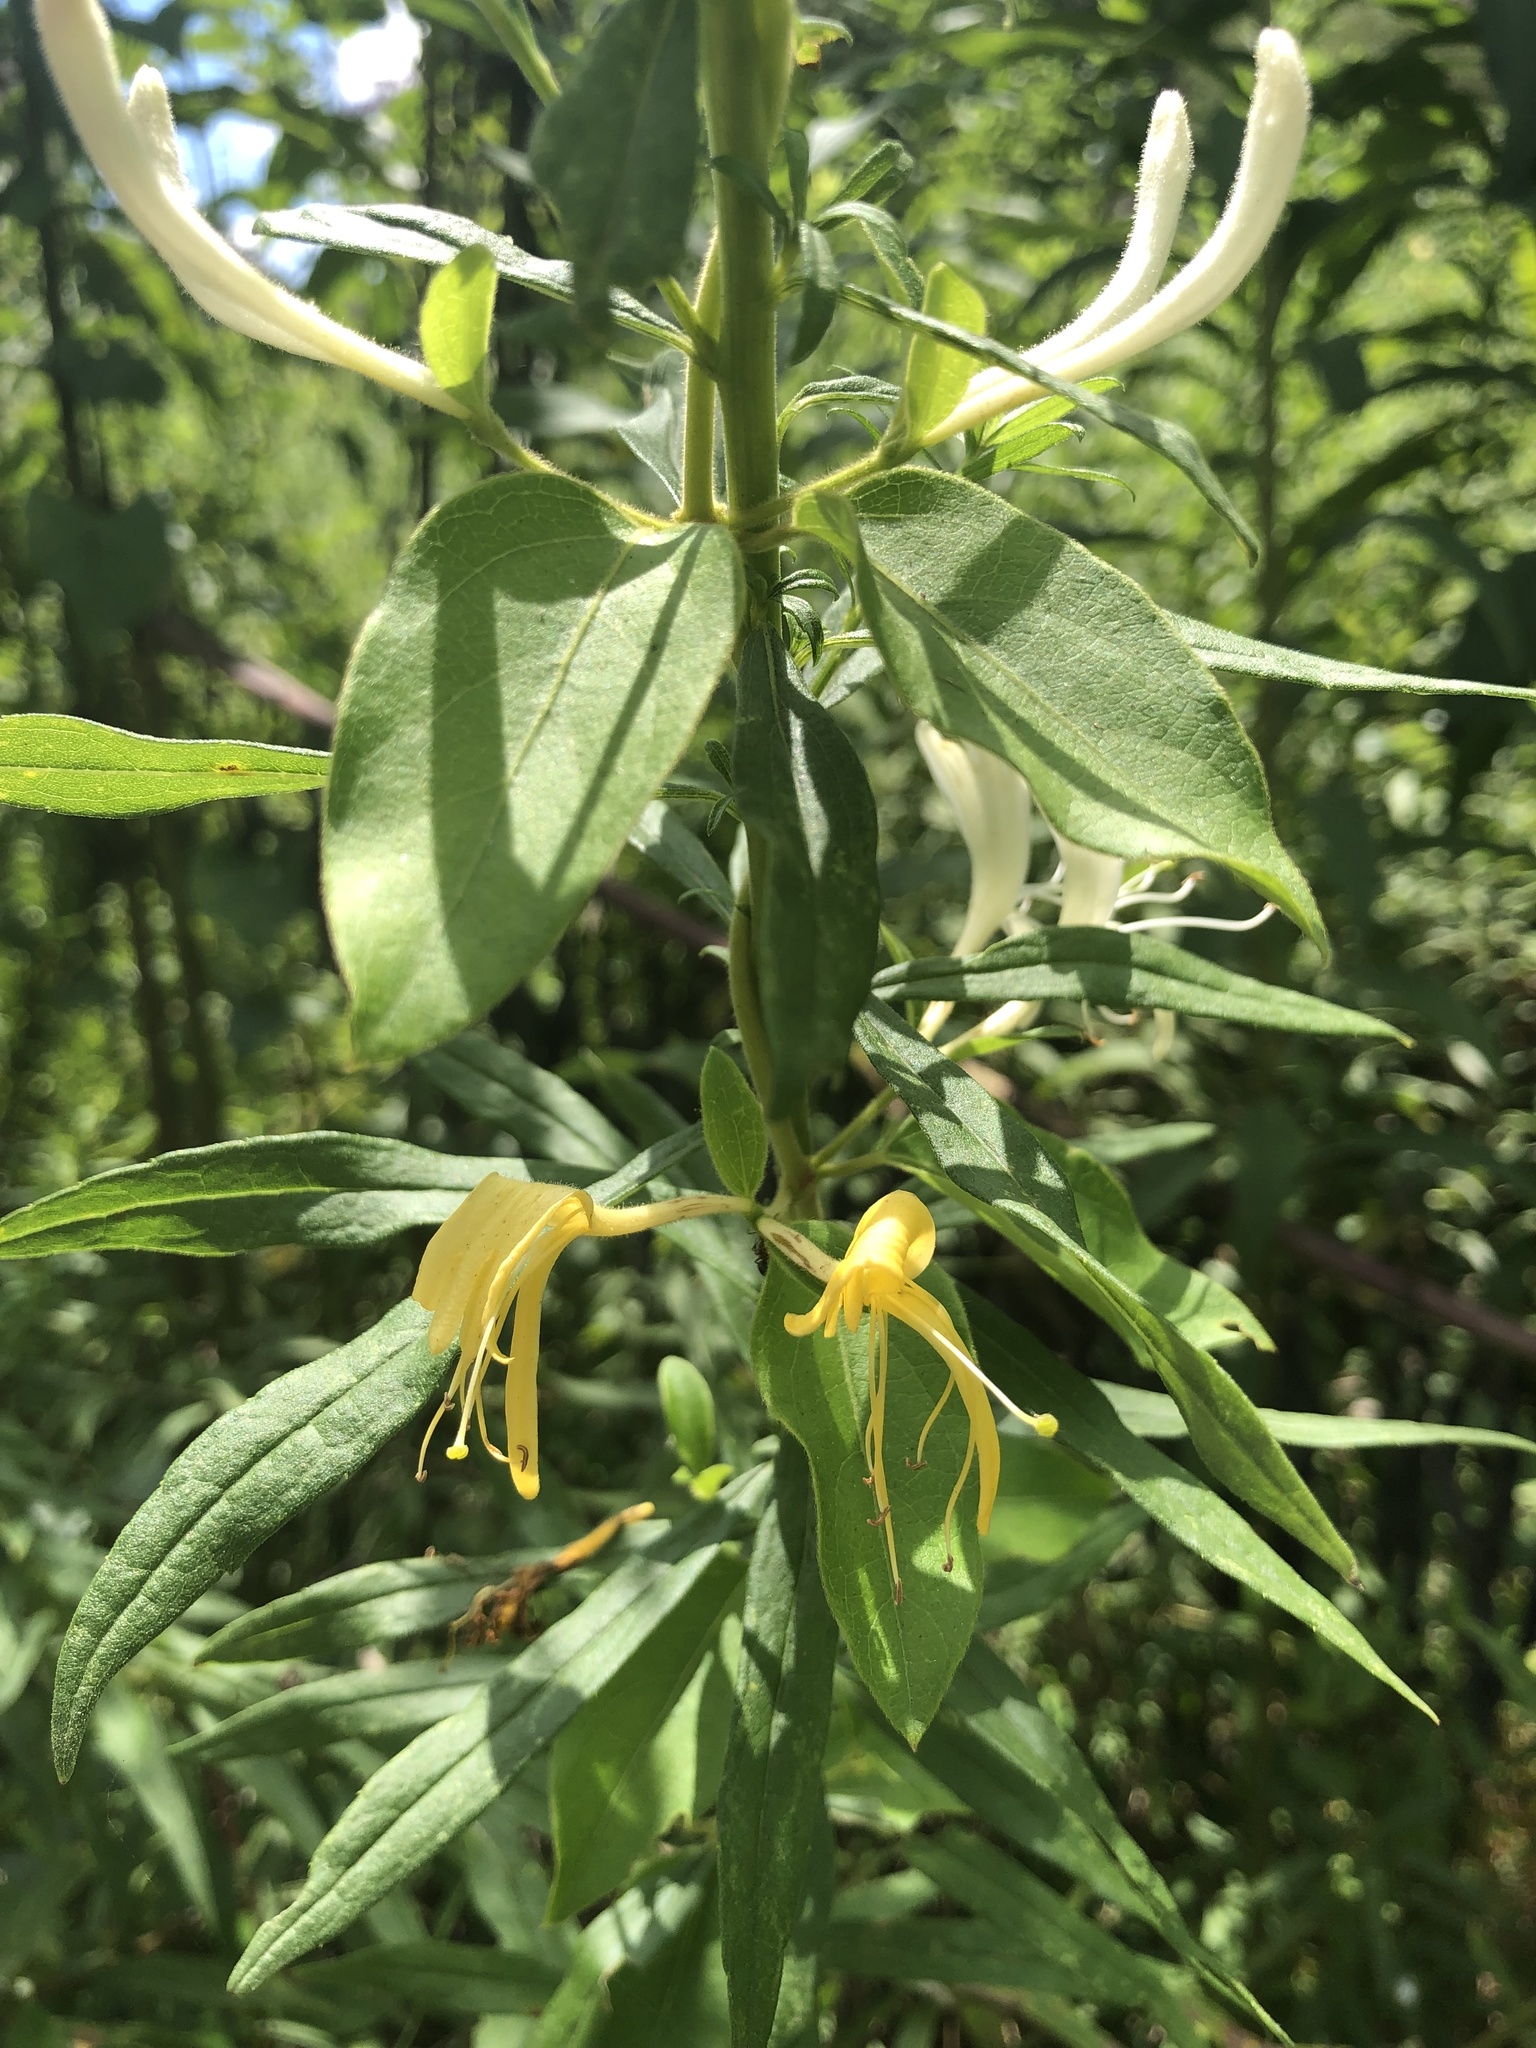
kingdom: Plantae
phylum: Tracheophyta
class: Magnoliopsida
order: Dipsacales
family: Caprifoliaceae
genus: Lonicera
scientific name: Lonicera japonica
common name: Japanese honeysuckle
